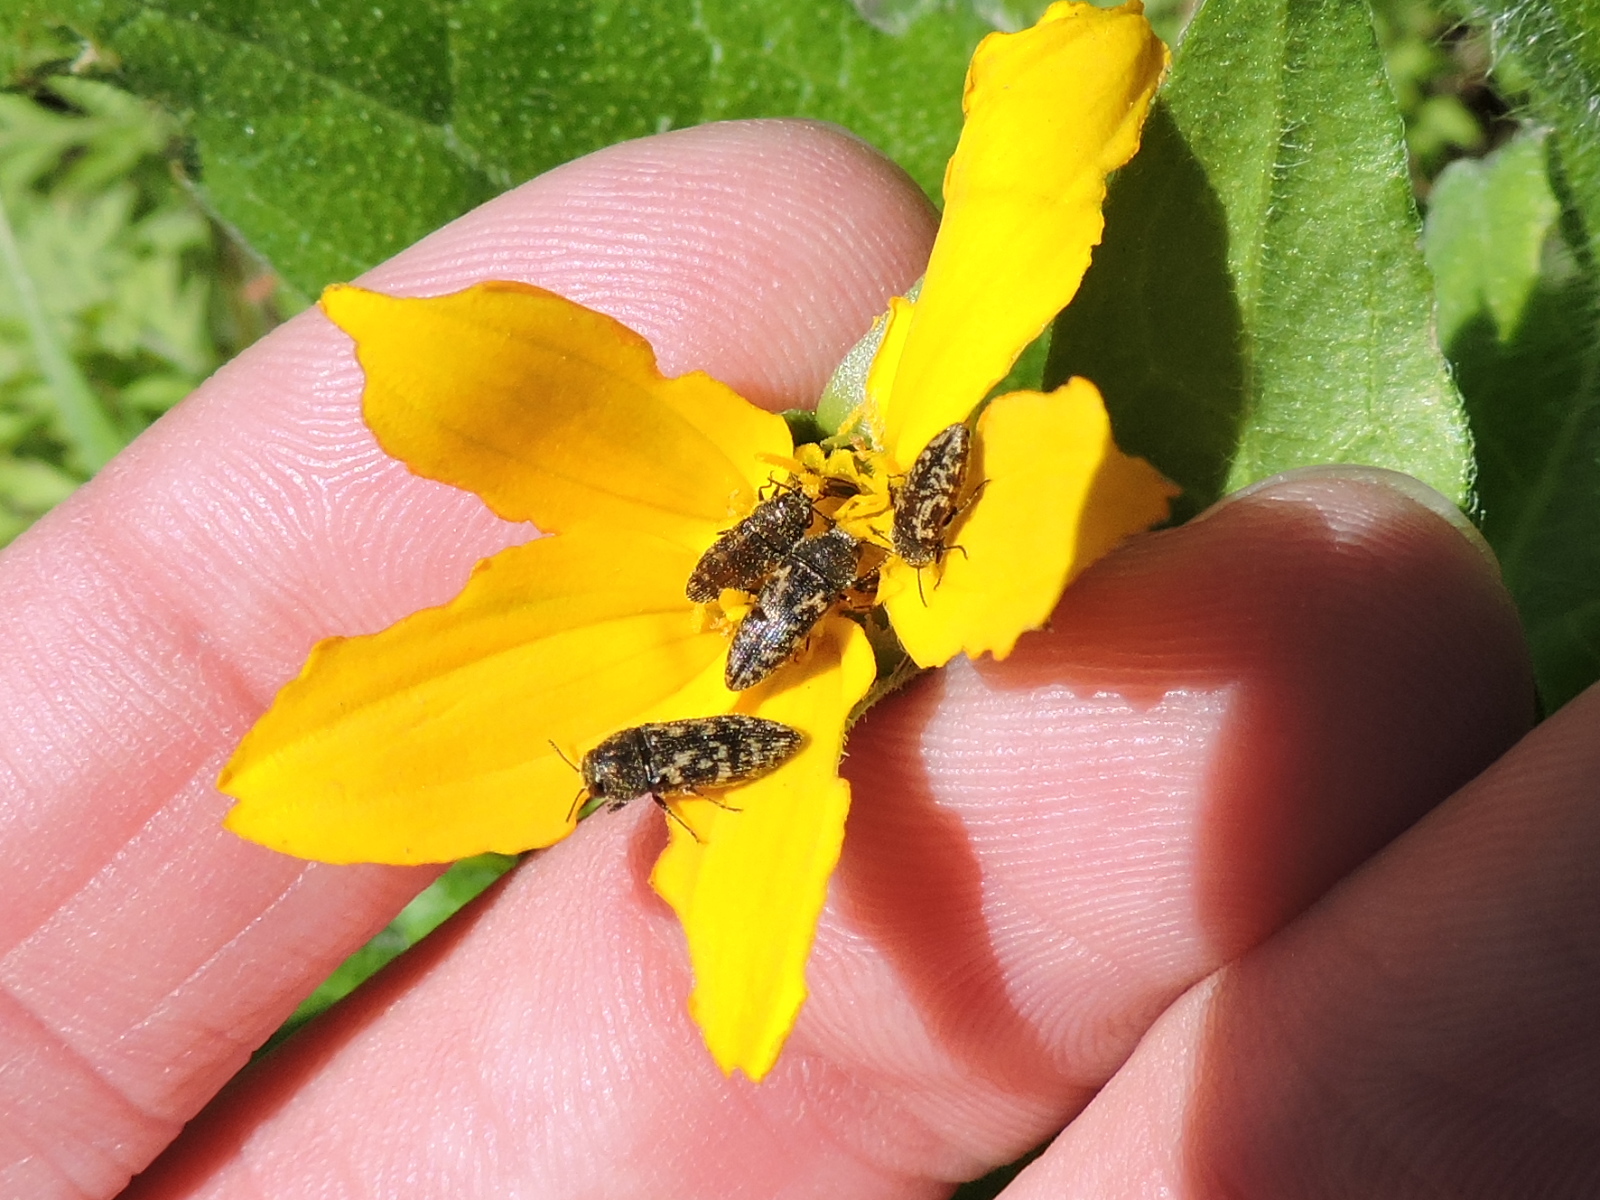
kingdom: Animalia
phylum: Arthropoda
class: Insecta
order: Coleoptera
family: Buprestidae
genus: Acmaeodera
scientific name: Acmaeodera neglecta
